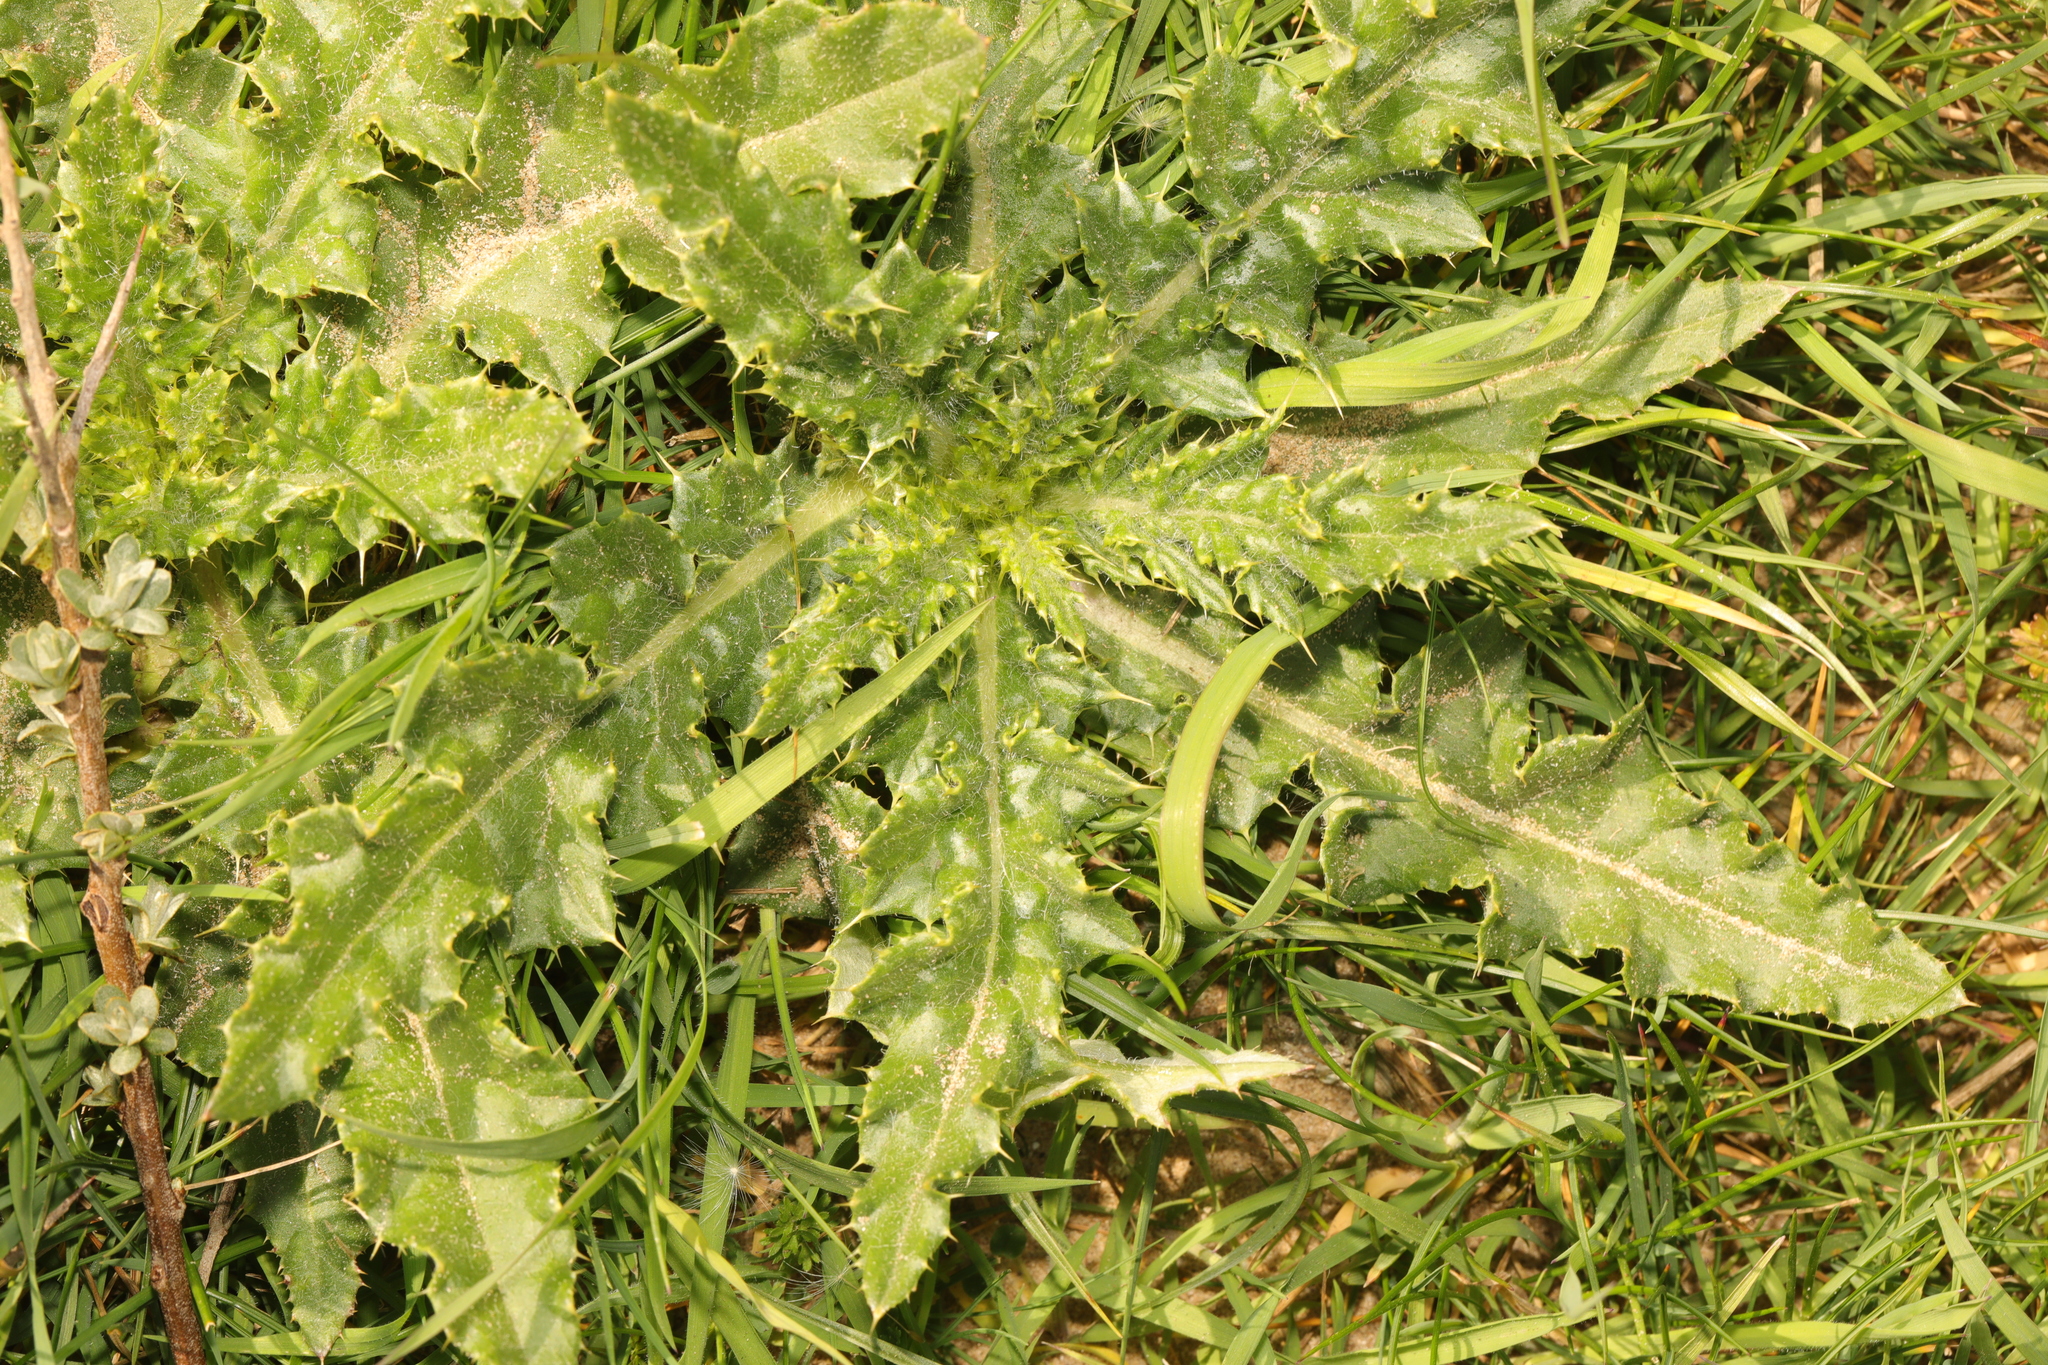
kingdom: Plantae
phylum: Tracheophyta
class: Magnoliopsida
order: Asterales
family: Asteraceae
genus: Cirsium
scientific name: Cirsium arvense
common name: Creeping thistle
